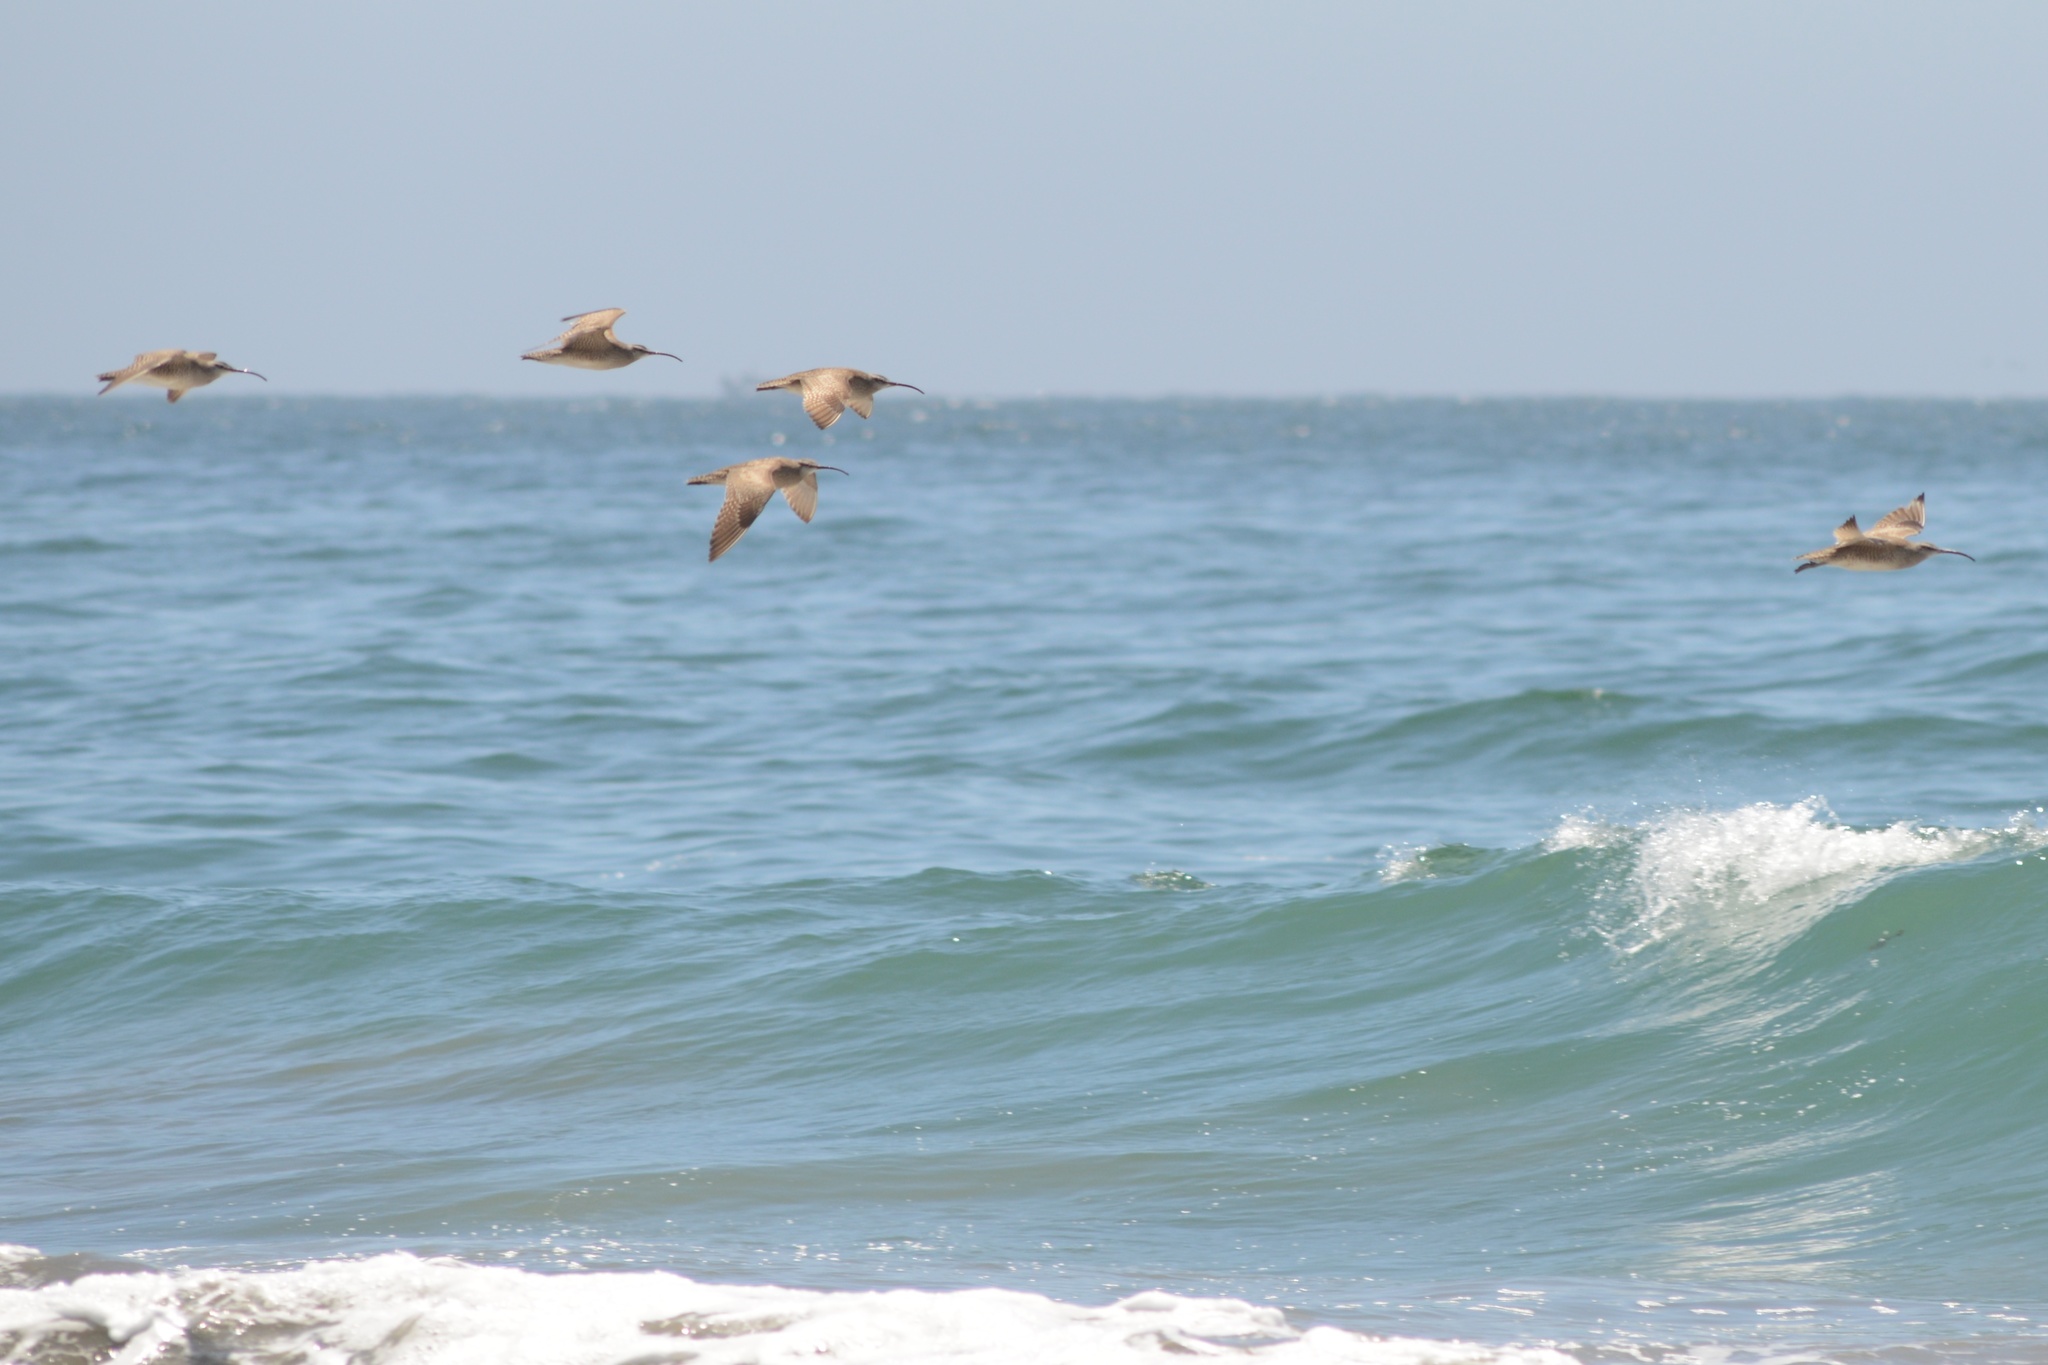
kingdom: Animalia
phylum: Chordata
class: Aves
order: Charadriiformes
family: Scolopacidae
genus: Numenius
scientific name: Numenius phaeopus
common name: Whimbrel
